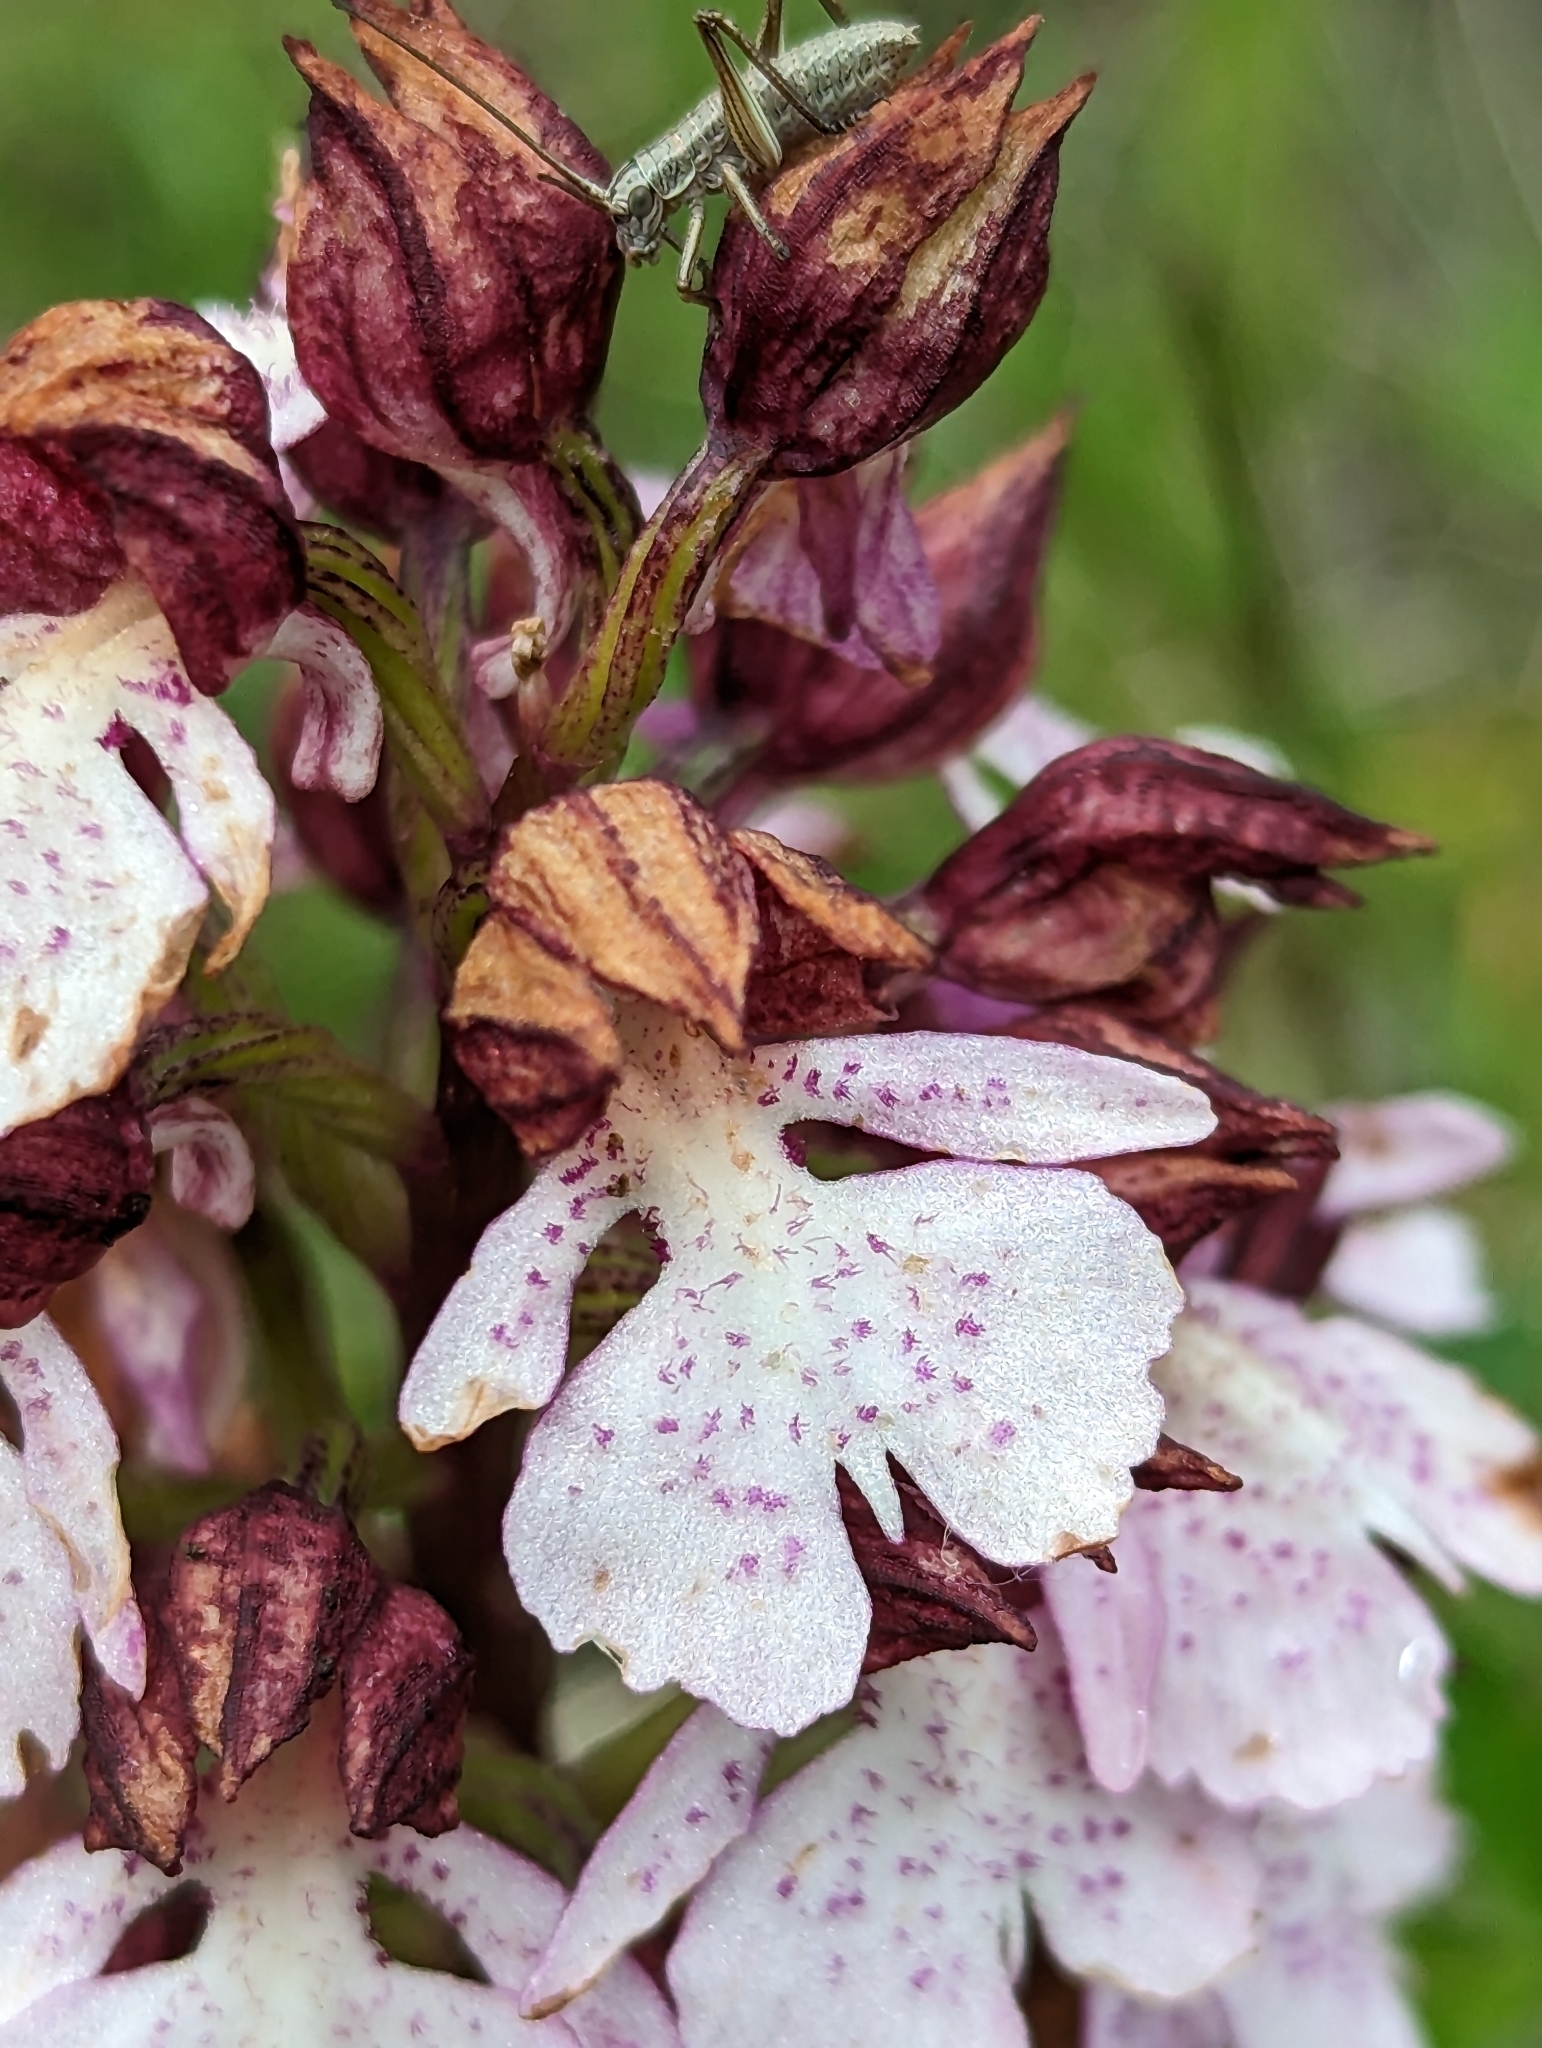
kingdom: Plantae
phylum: Tracheophyta
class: Liliopsida
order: Asparagales
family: Orchidaceae
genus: Orchis
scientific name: Orchis purpurea
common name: Lady orchid
